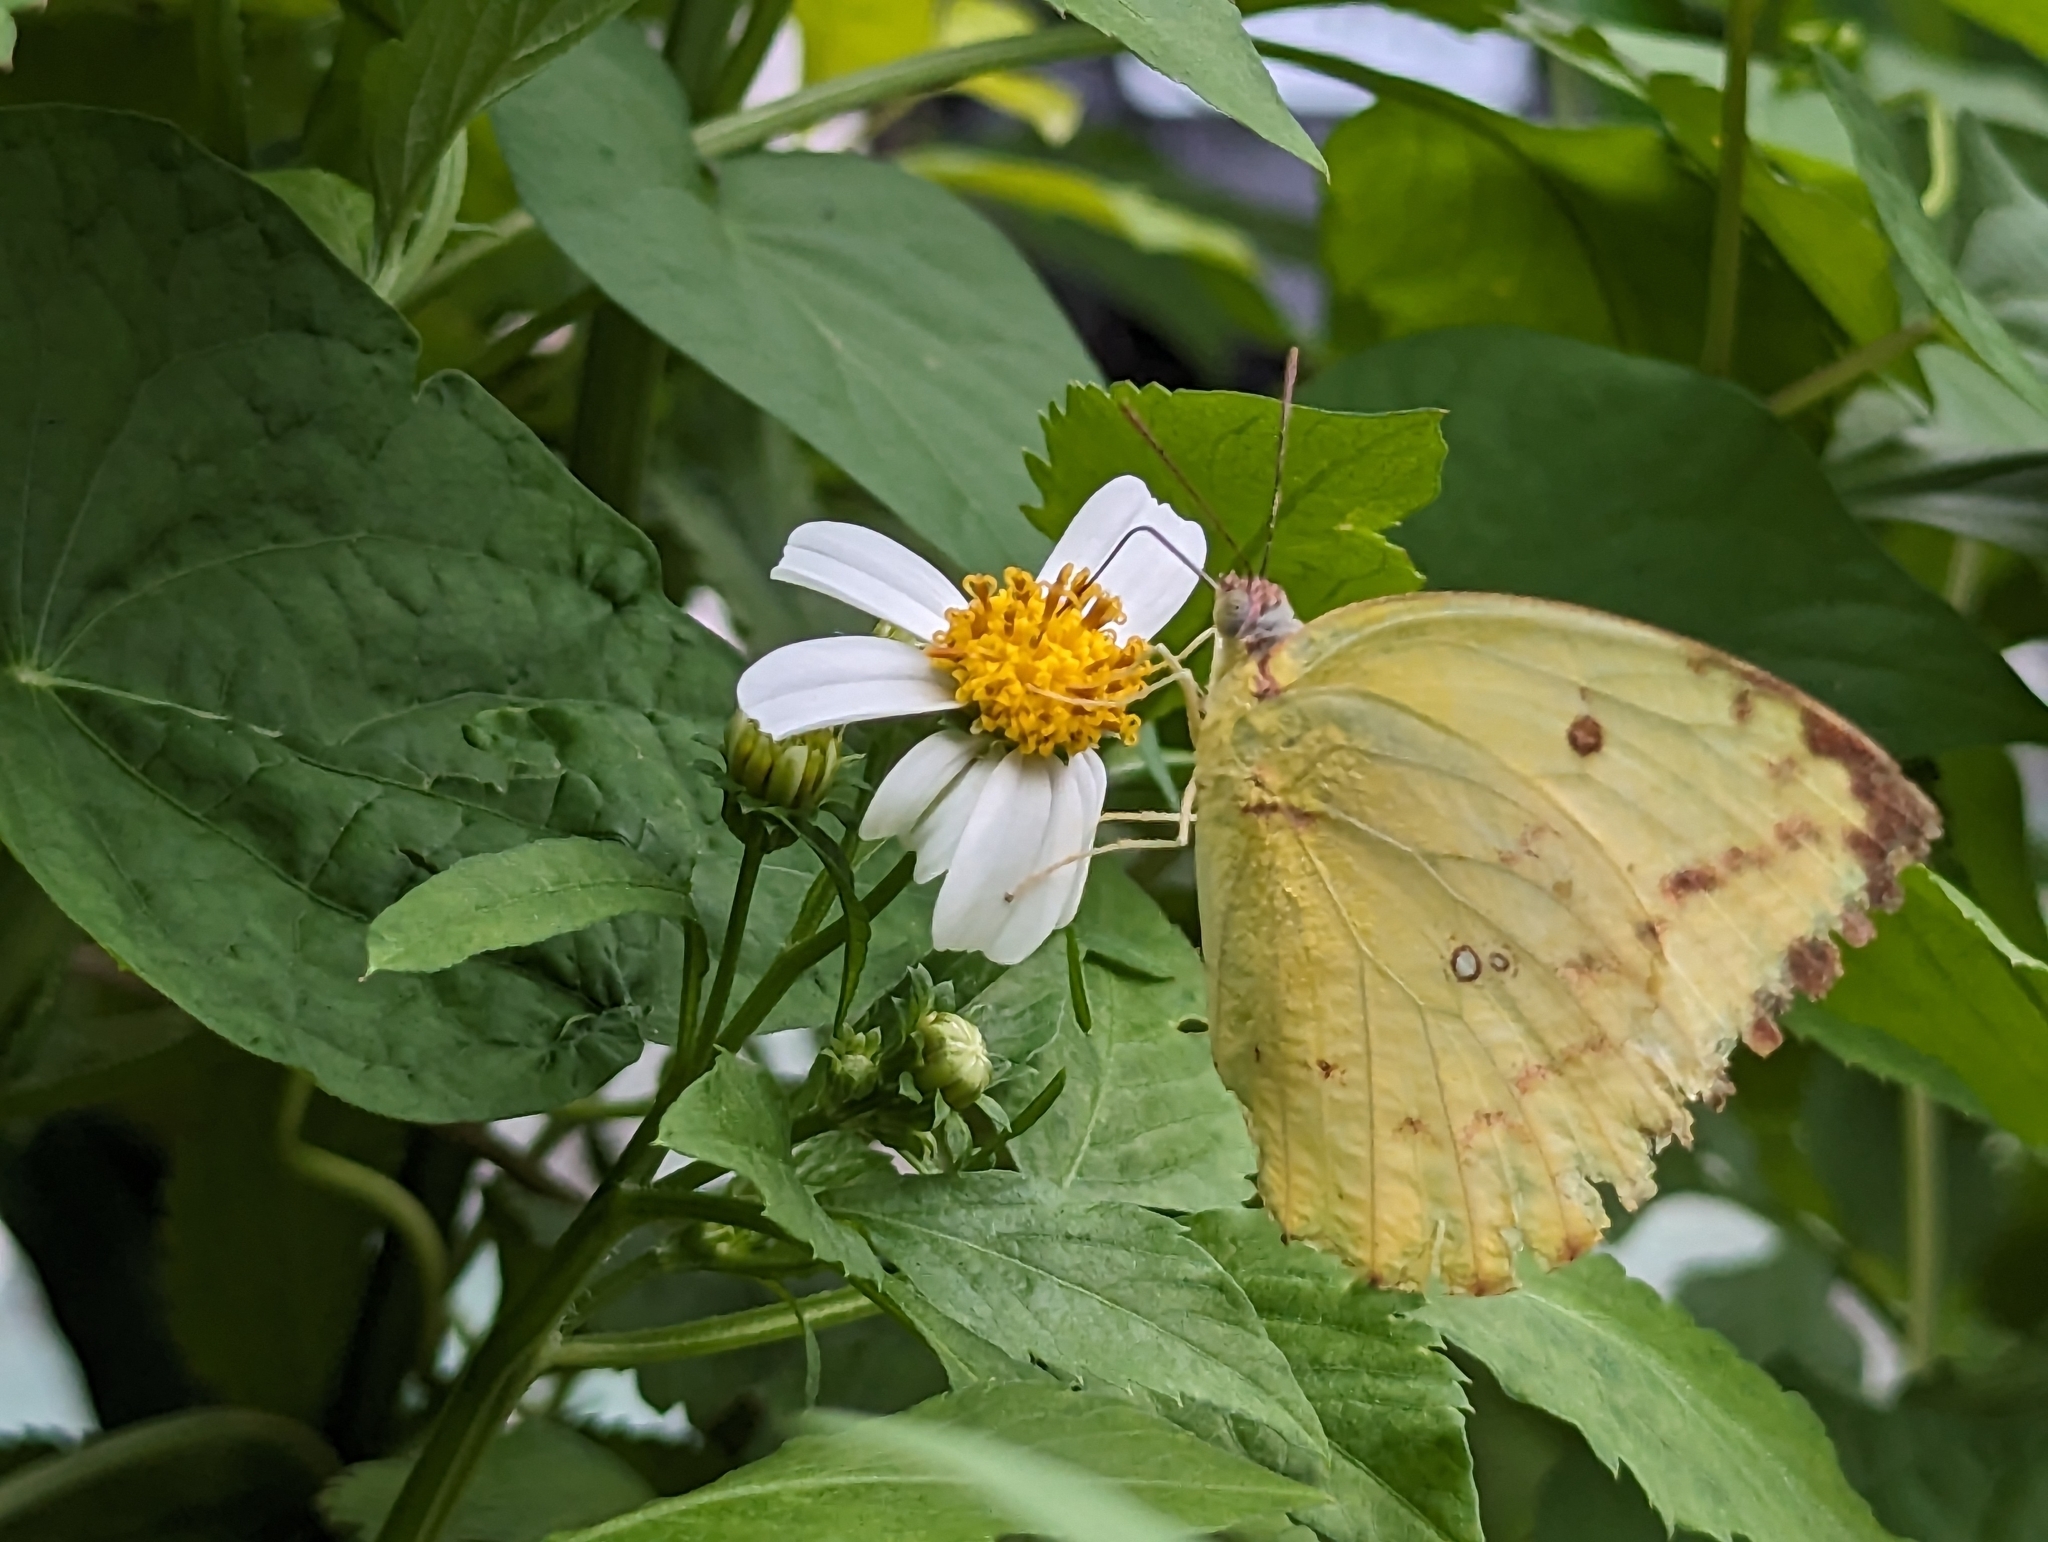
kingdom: Animalia
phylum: Arthropoda
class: Insecta
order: Lepidoptera
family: Pieridae
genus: Catopsilia
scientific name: Catopsilia pyranthe
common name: Mottled emigrant
